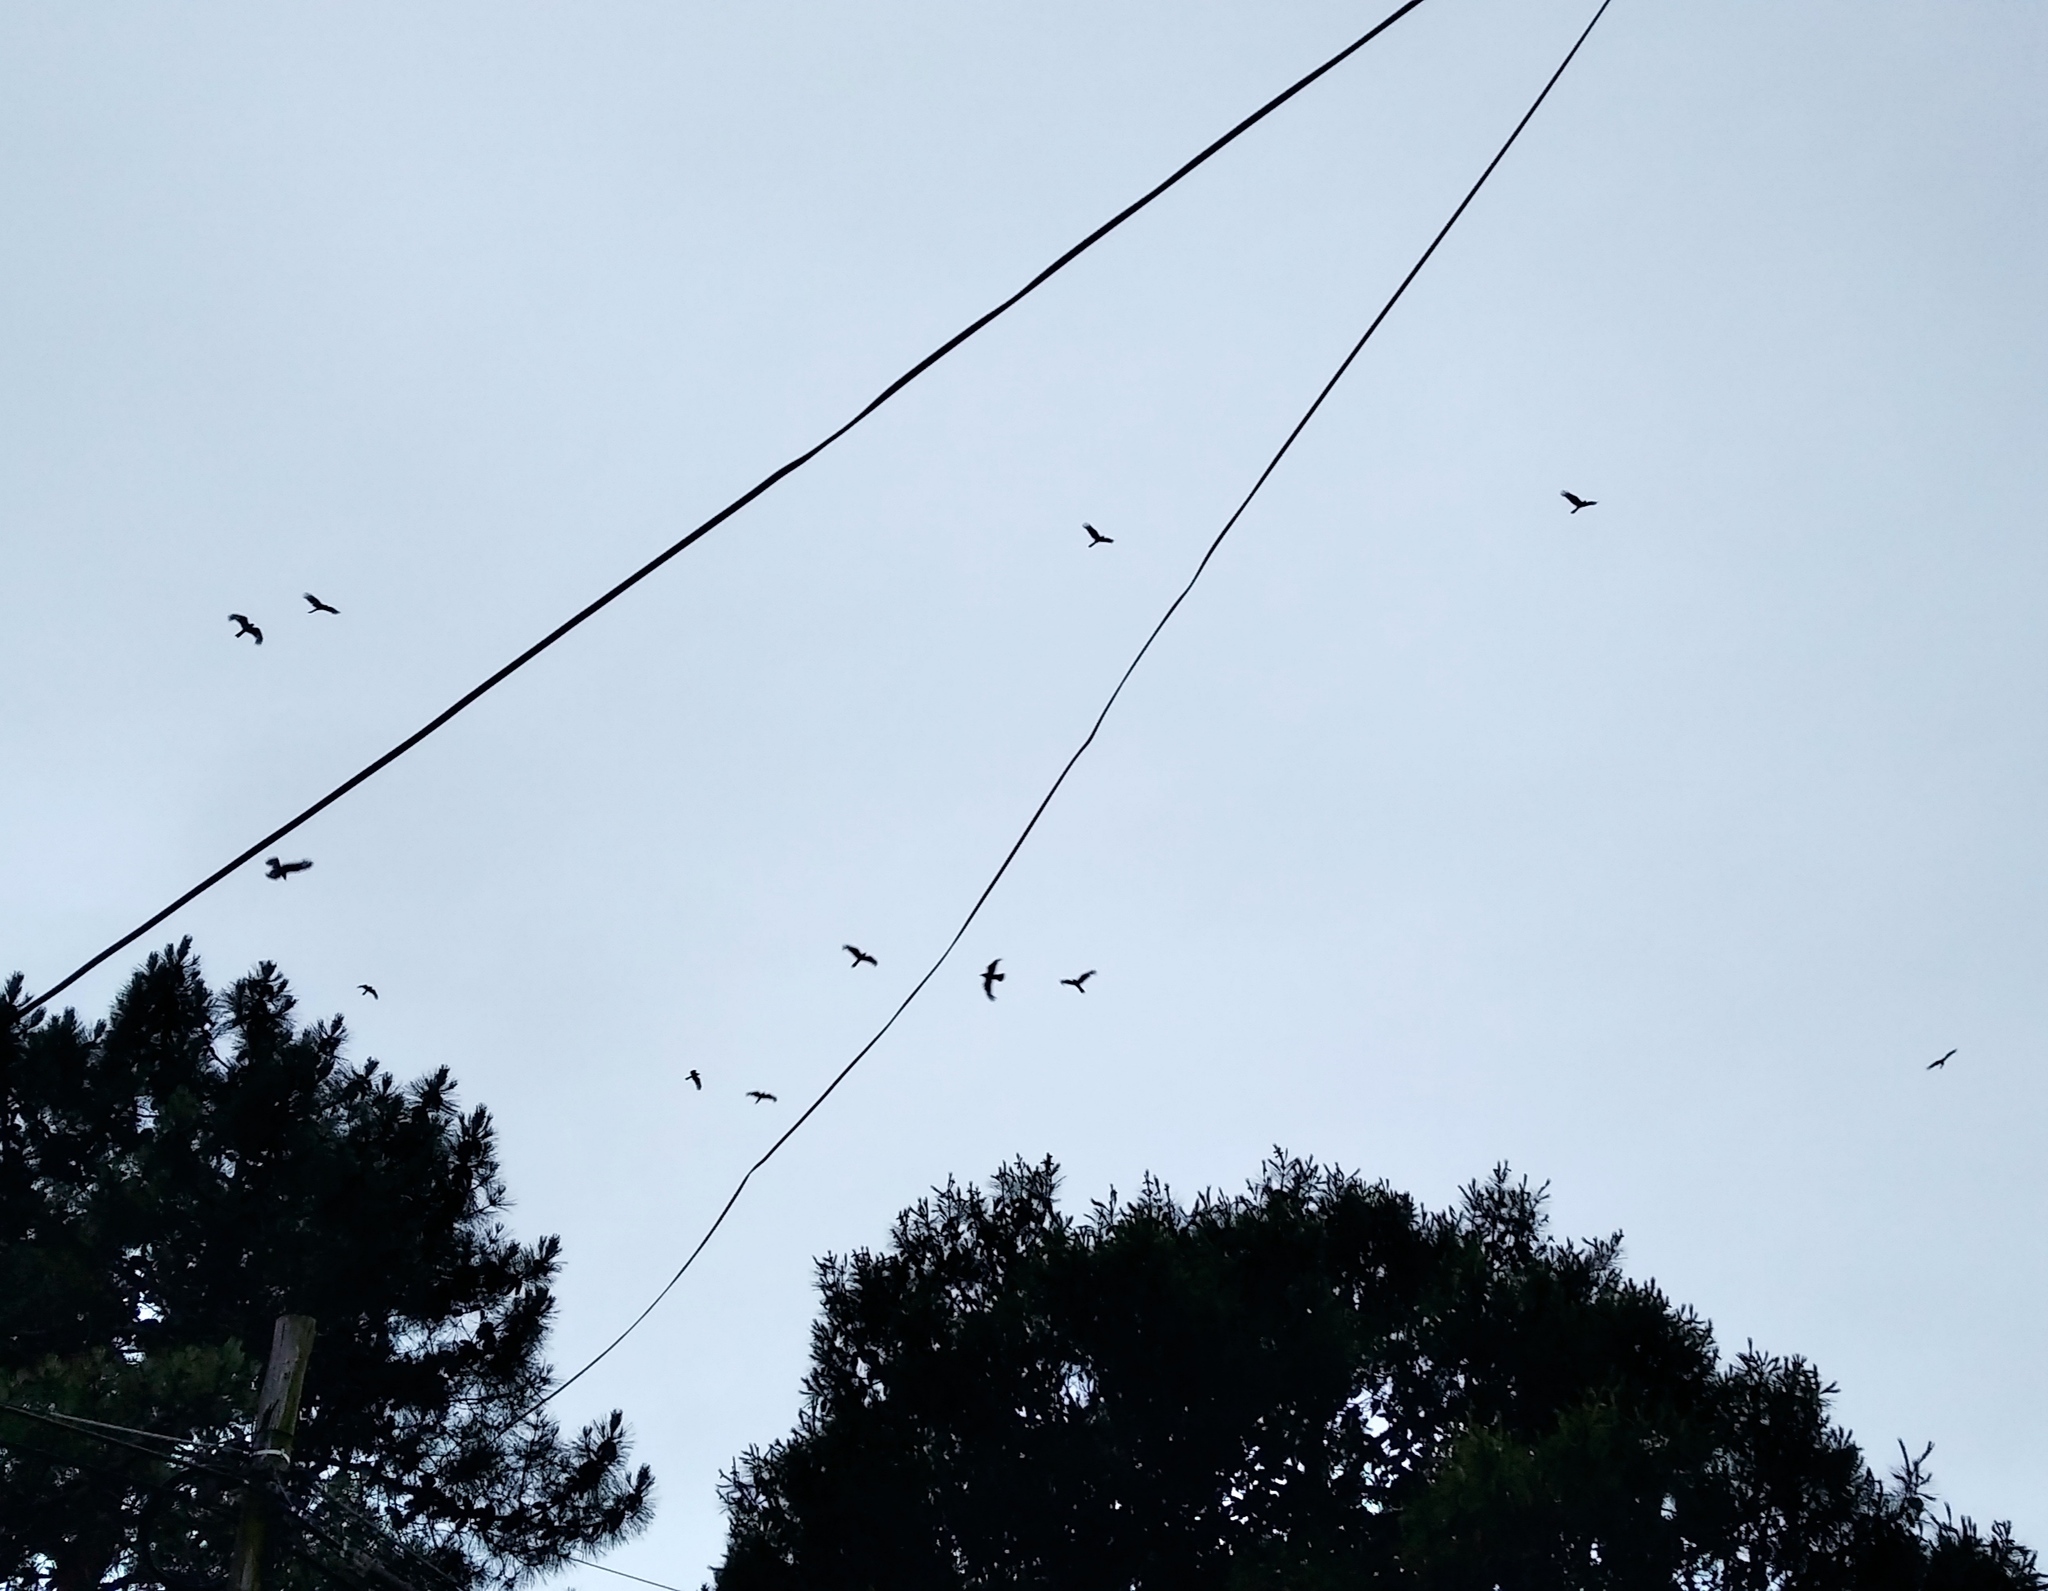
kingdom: Animalia
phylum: Chordata
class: Aves
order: Falconiformes
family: Falconidae
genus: Daptrius
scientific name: Daptrius
